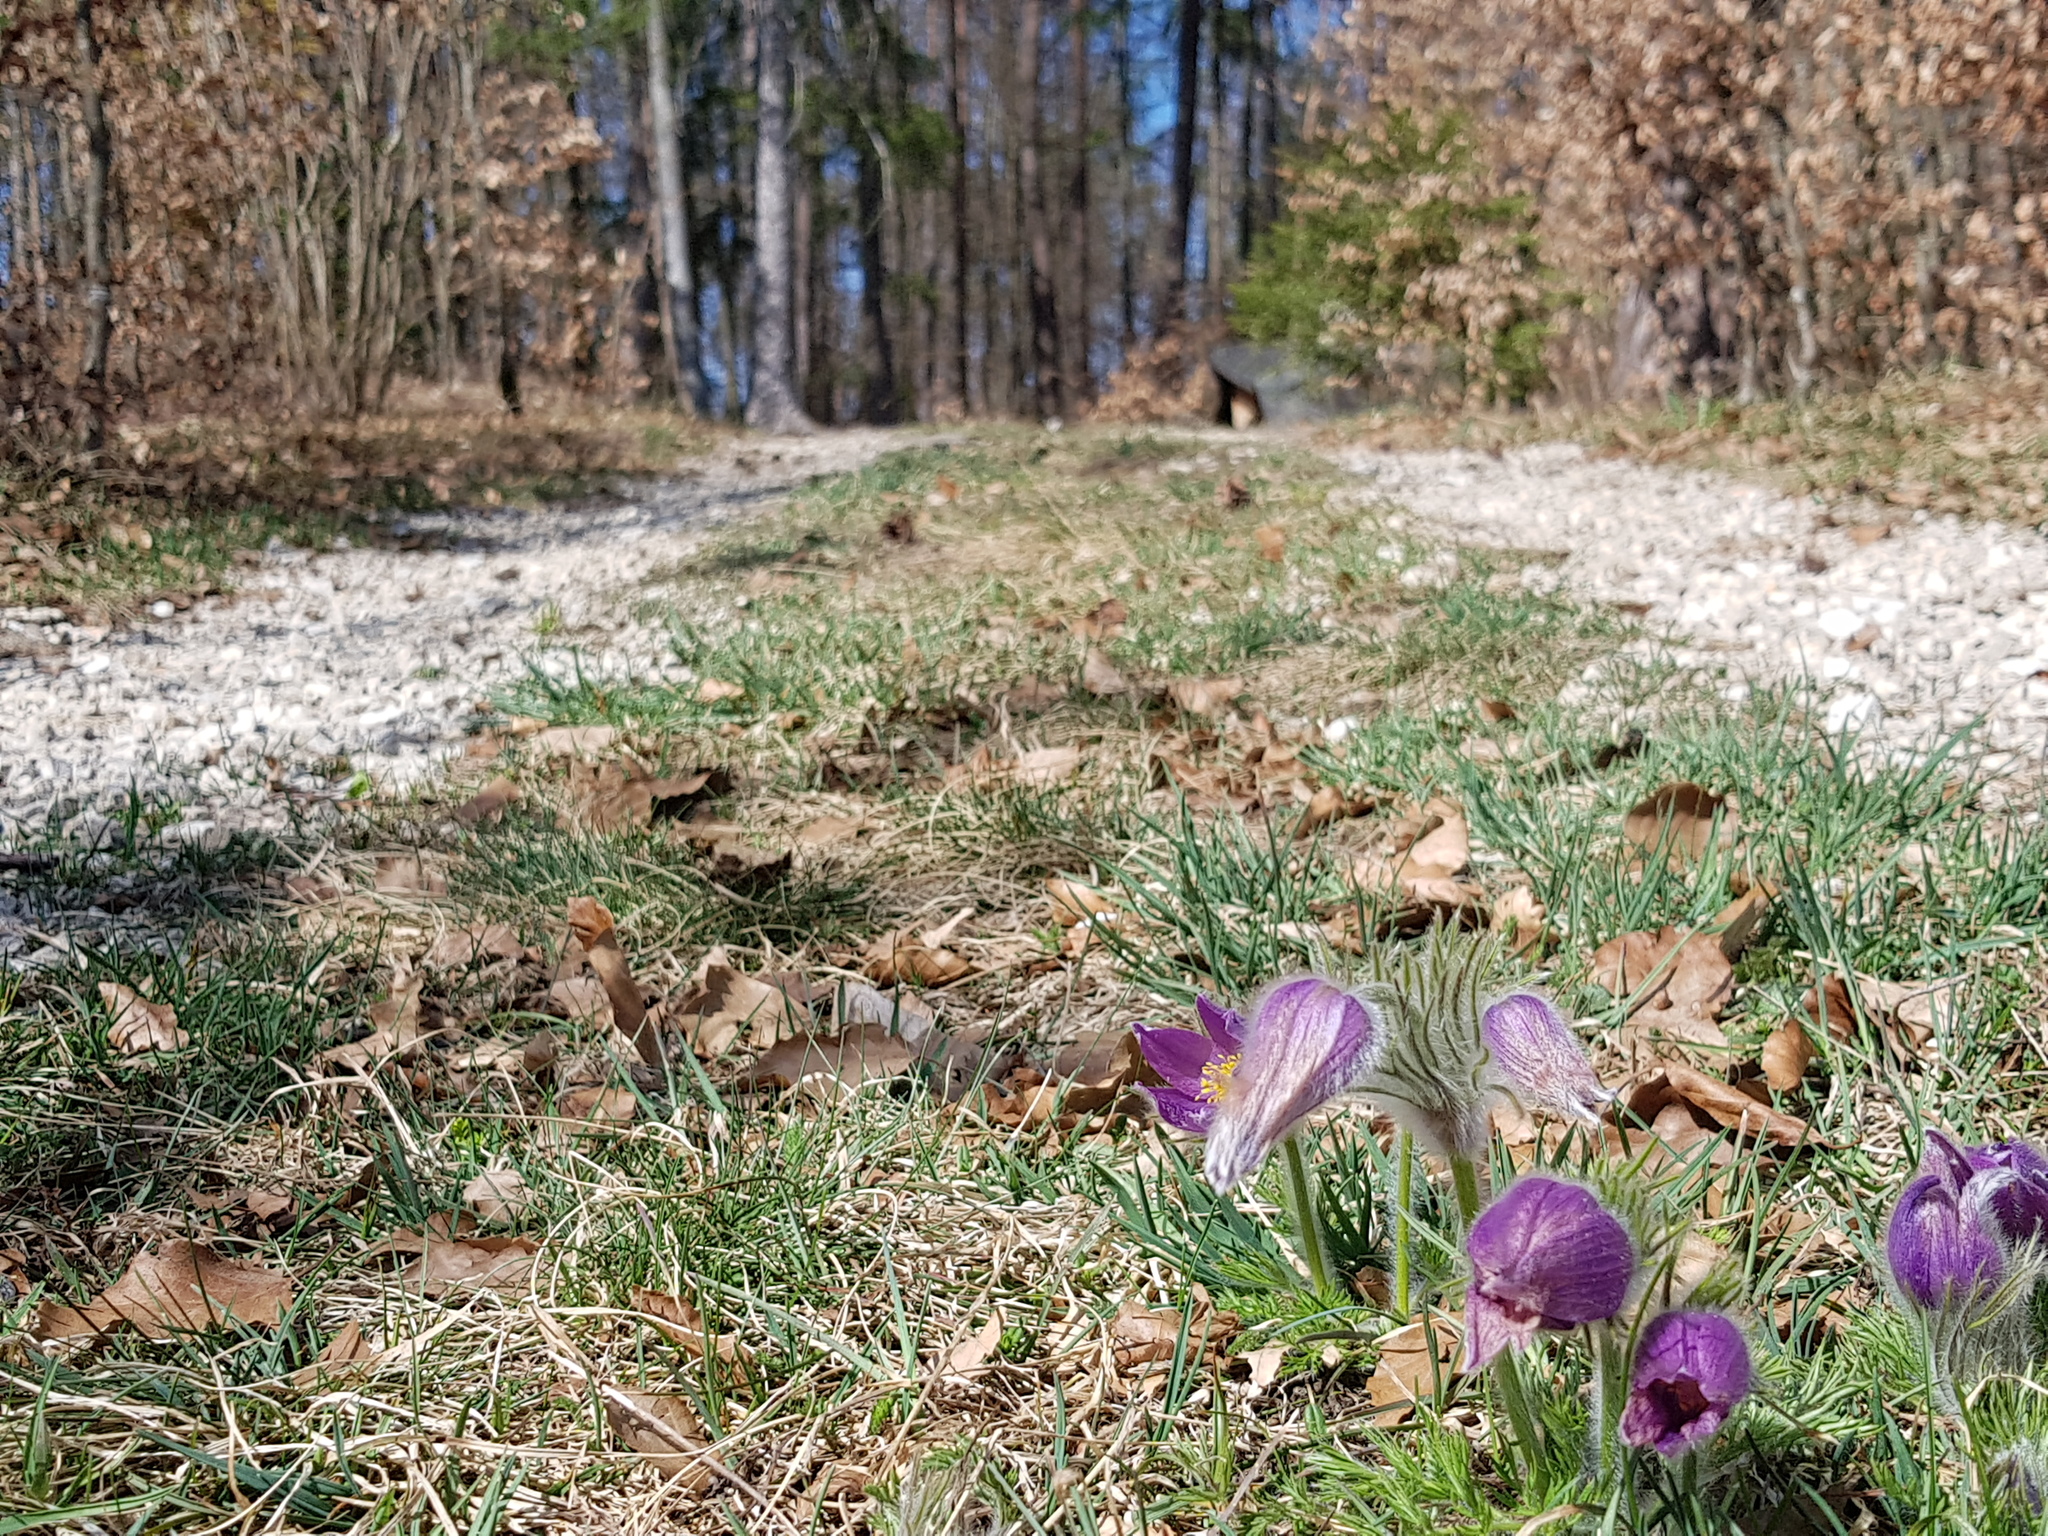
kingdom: Plantae
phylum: Tracheophyta
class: Magnoliopsida
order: Ranunculales
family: Ranunculaceae
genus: Pulsatilla
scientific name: Pulsatilla vulgaris
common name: Pasqueflower
